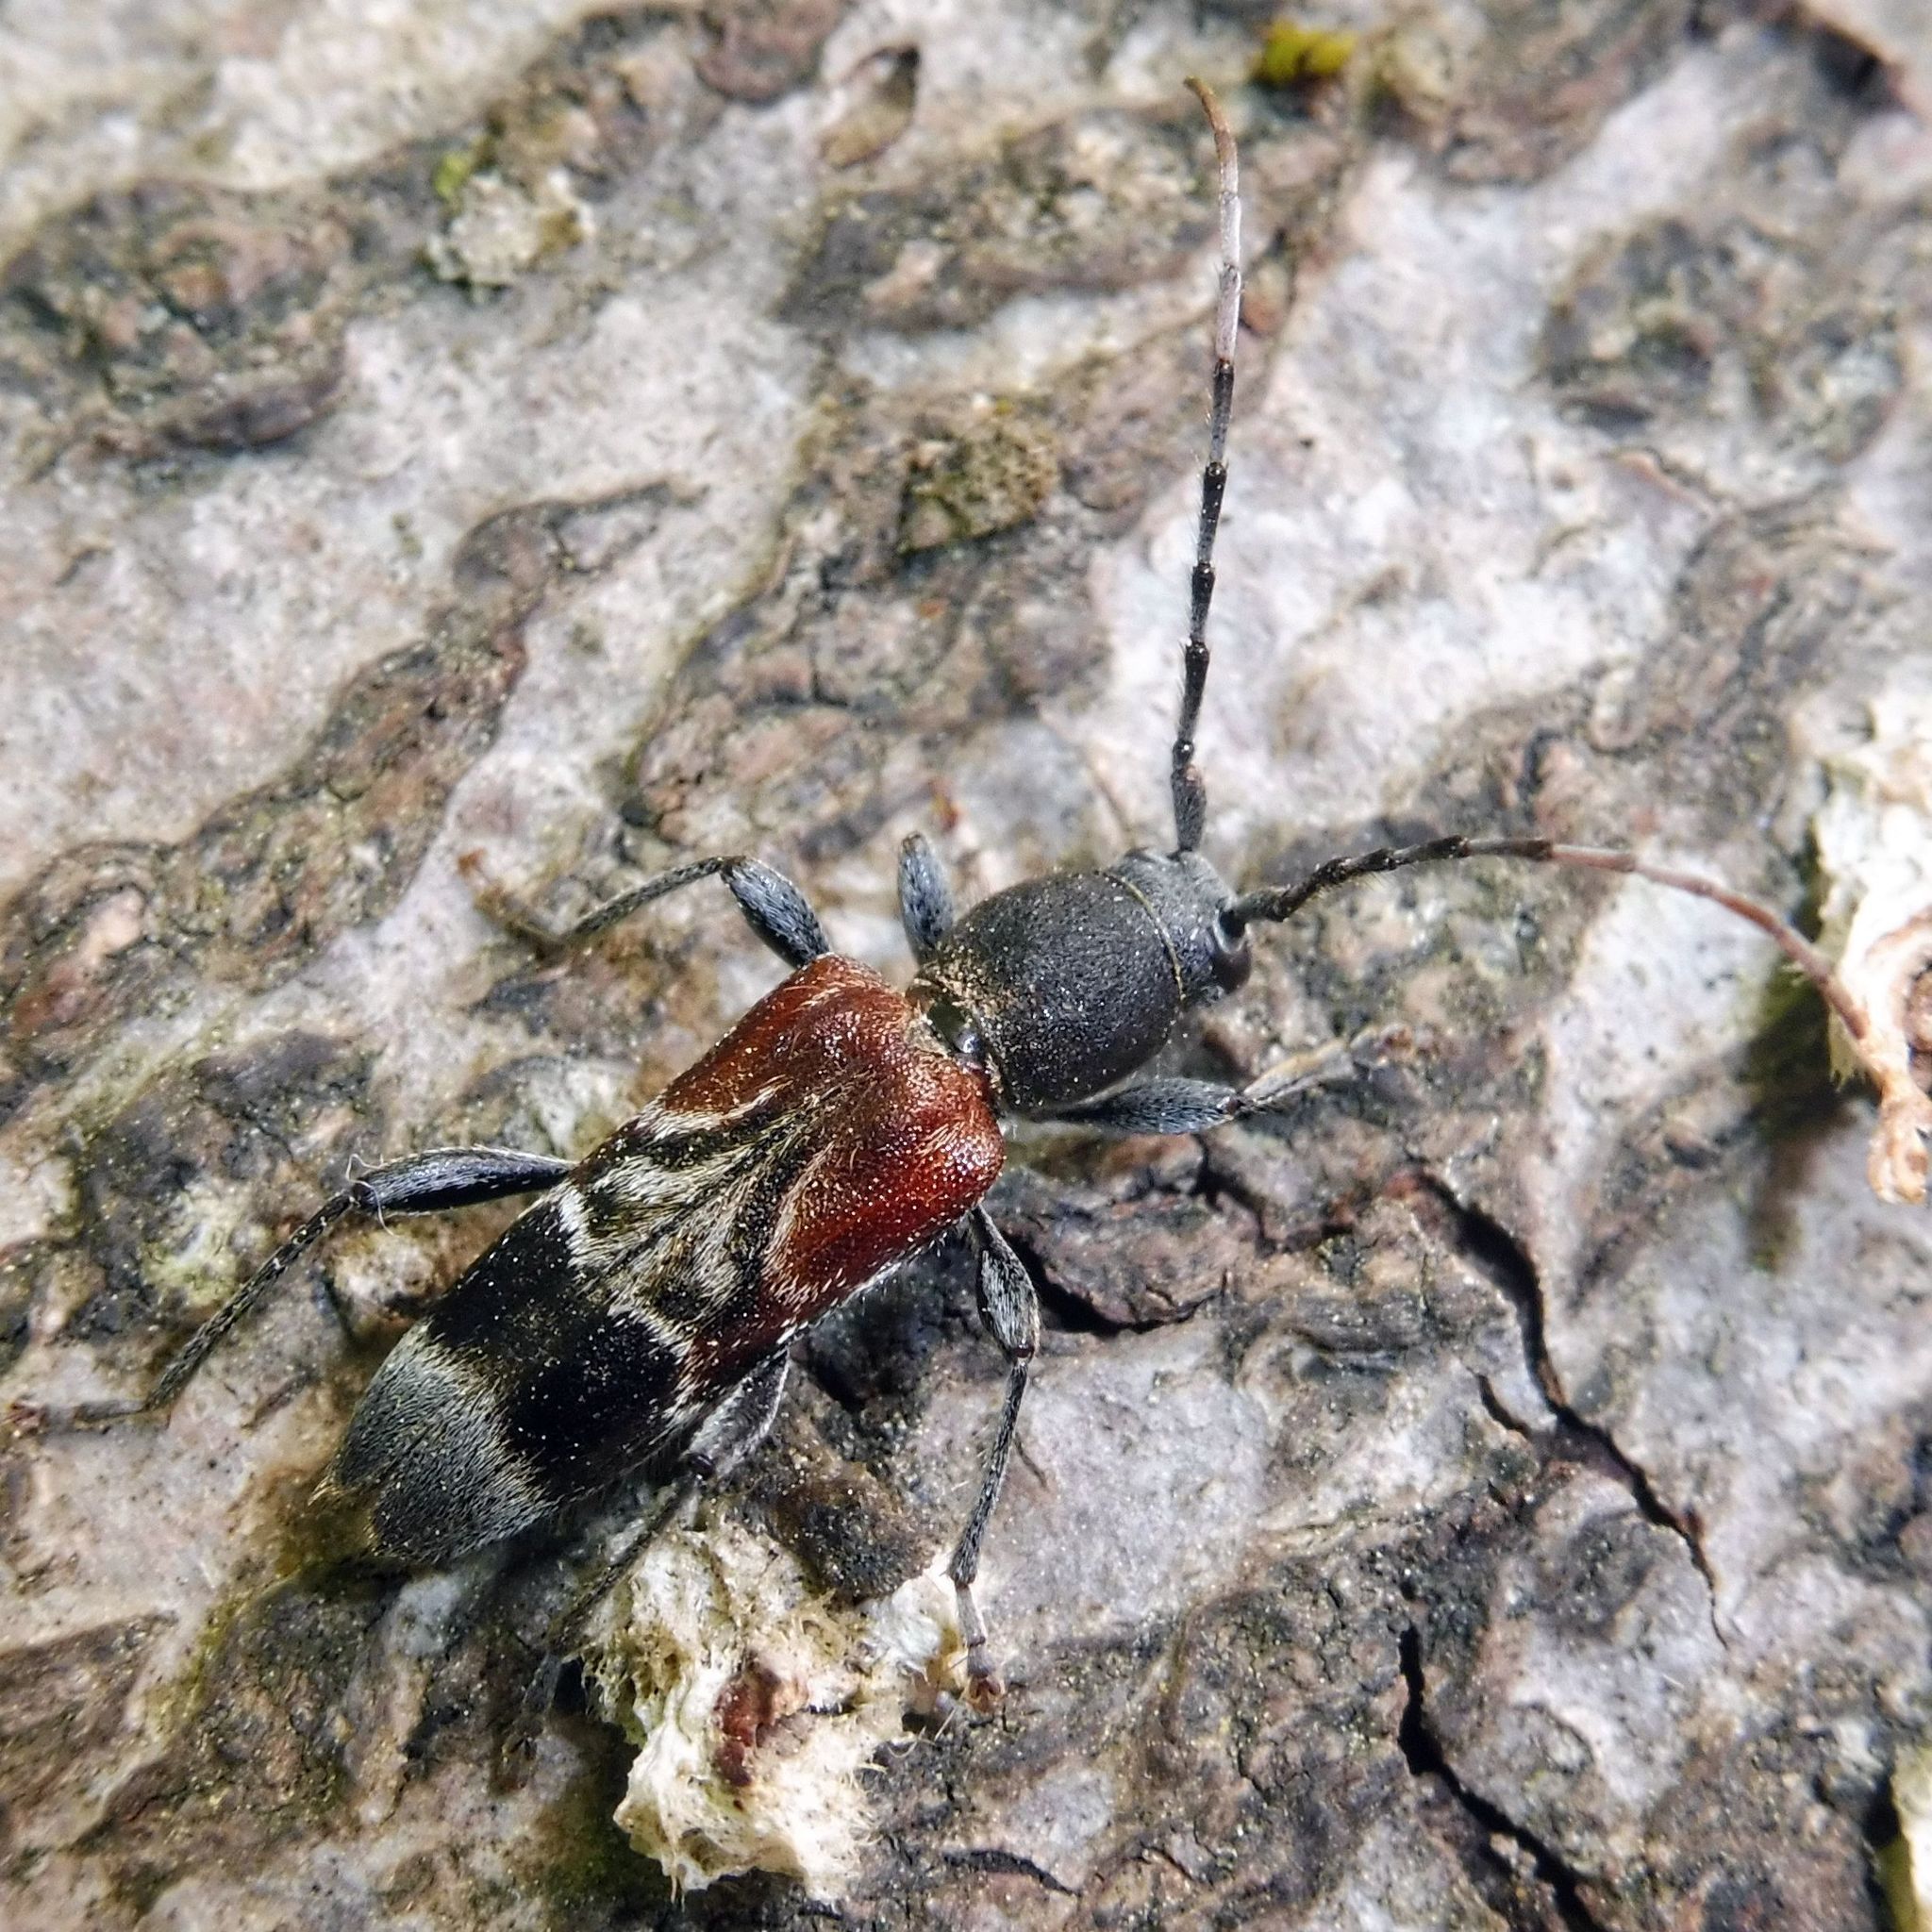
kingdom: Animalia
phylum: Arthropoda
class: Insecta
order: Coleoptera
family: Cerambycidae
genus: Anaglyptus
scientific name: Anaglyptus mysticus
